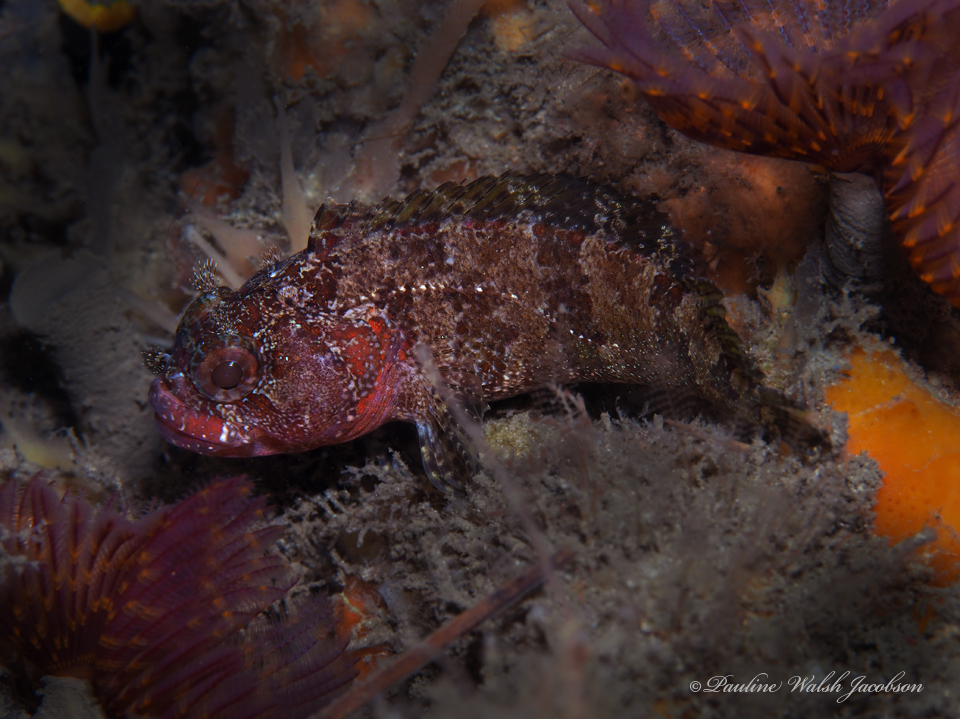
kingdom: Animalia
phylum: Chordata
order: Perciformes
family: Labrisomidae
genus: Gobioclinus
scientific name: Gobioclinus kalisherae
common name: Downy blenny
